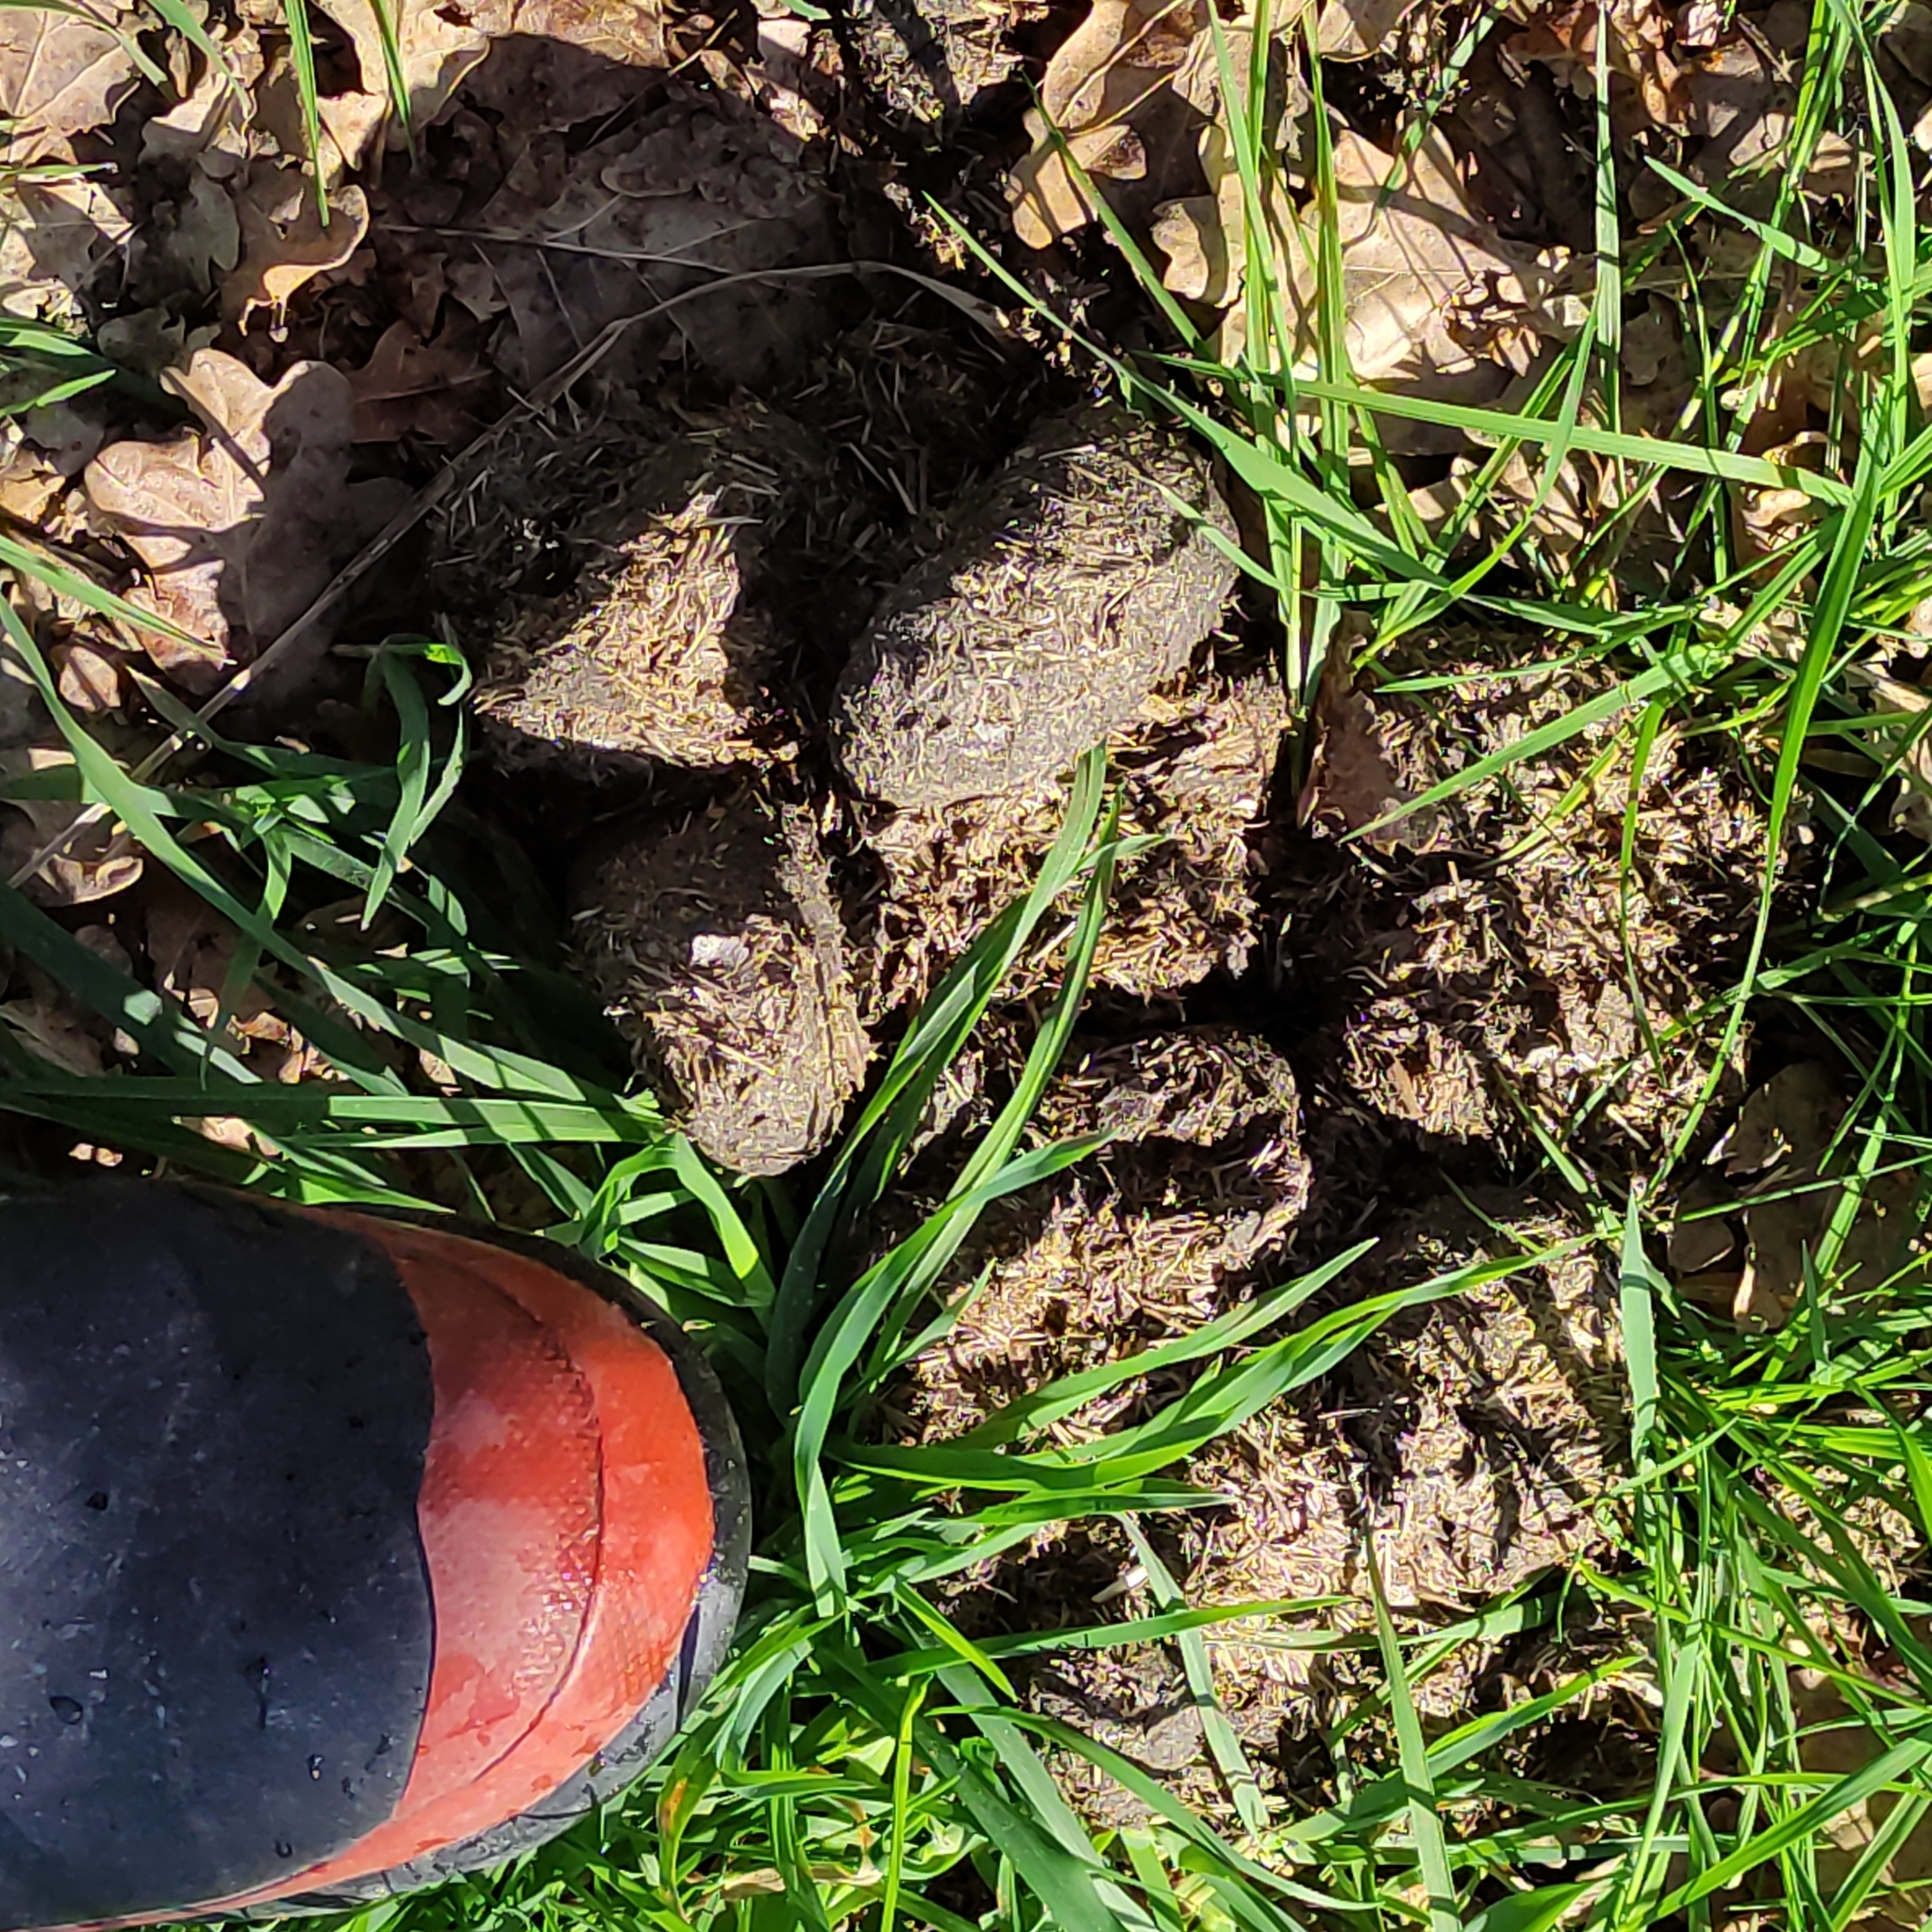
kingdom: Animalia
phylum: Chordata
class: Mammalia
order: Perissodactyla
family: Equidae
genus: Equus
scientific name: Equus caballus
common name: Horse
